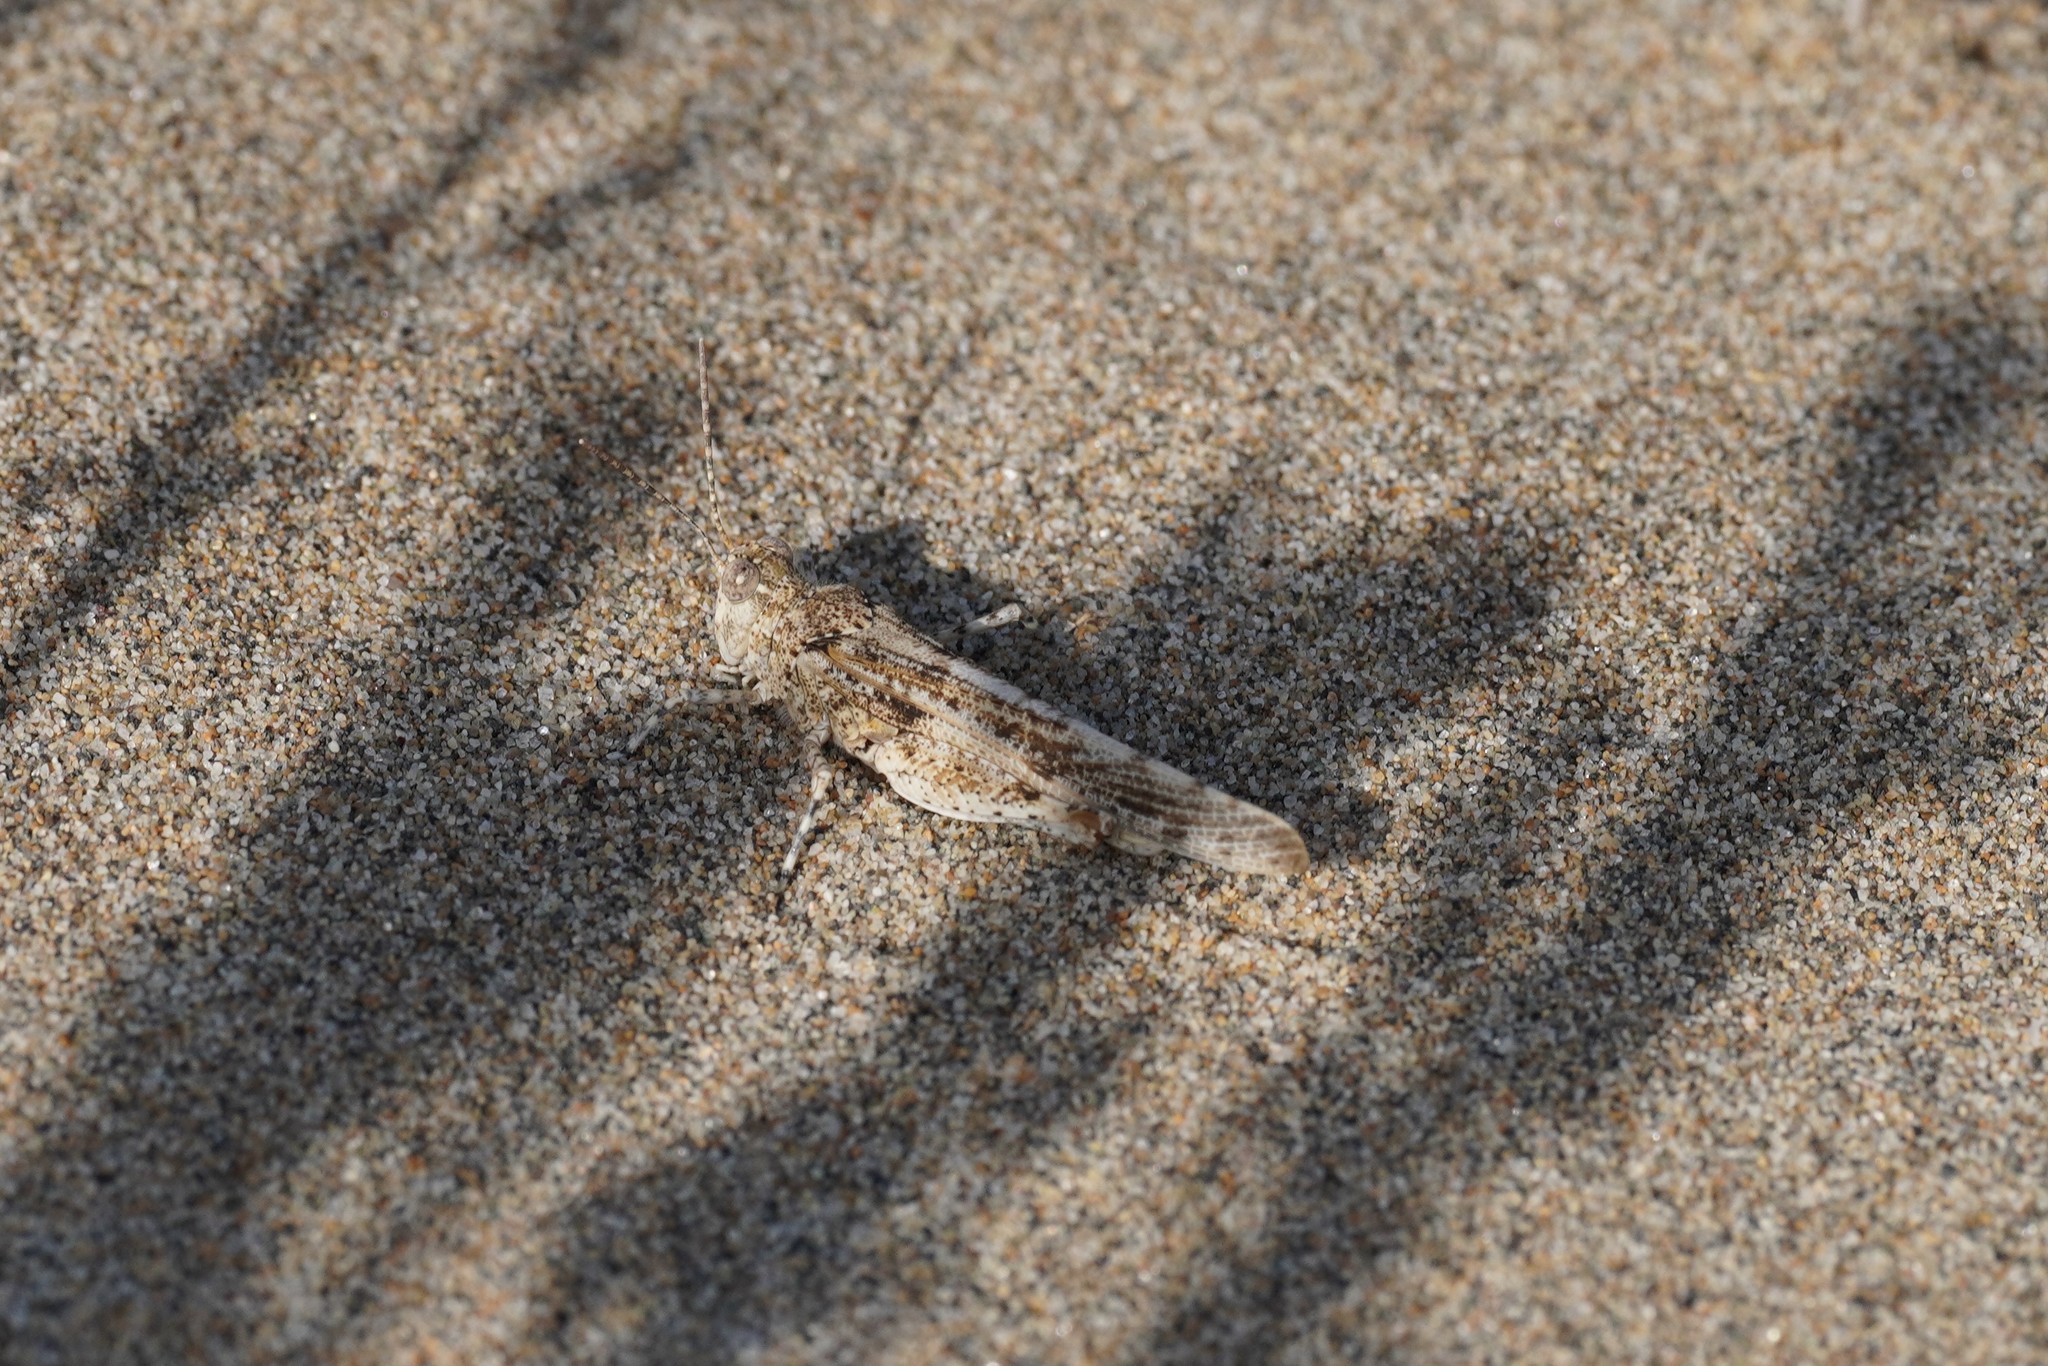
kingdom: Animalia
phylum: Arthropoda
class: Insecta
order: Orthoptera
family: Acrididae
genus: Sphingonotus
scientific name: Sphingonotus caerulans
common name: Blue-winged locust
